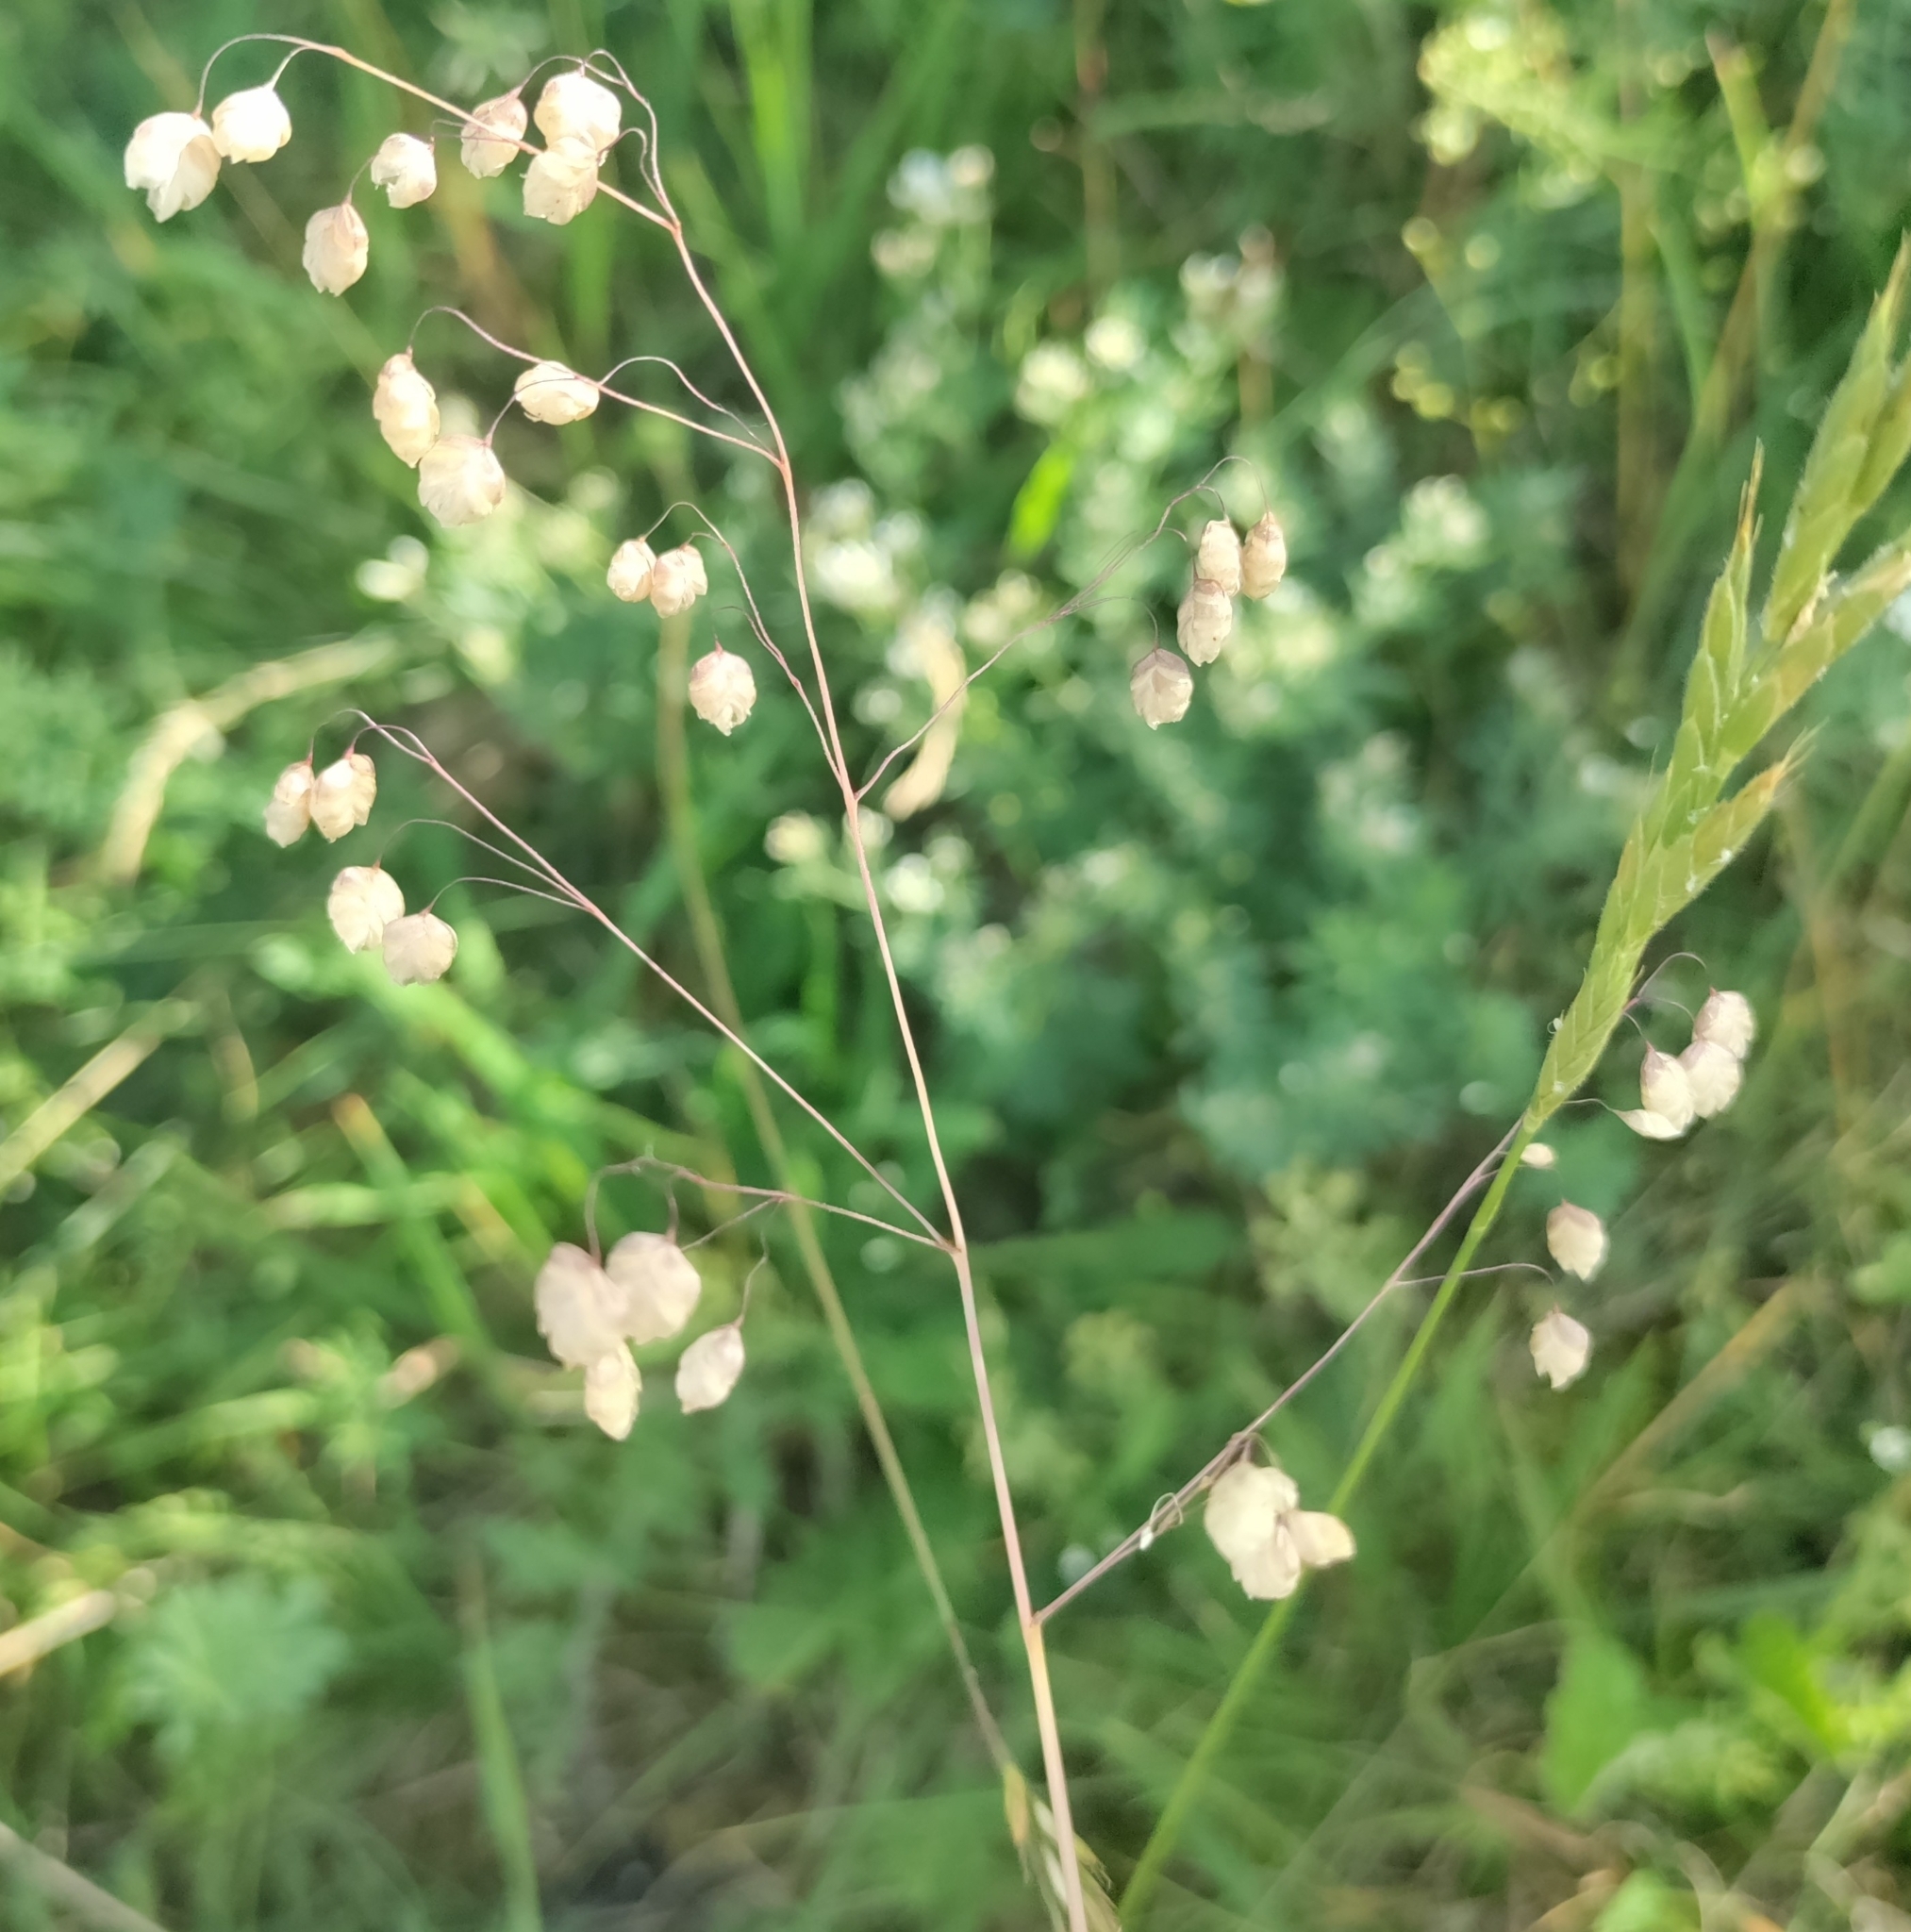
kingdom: Plantae
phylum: Tracheophyta
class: Liliopsida
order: Poales
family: Poaceae
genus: Briza
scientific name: Briza media
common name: Quaking grass
